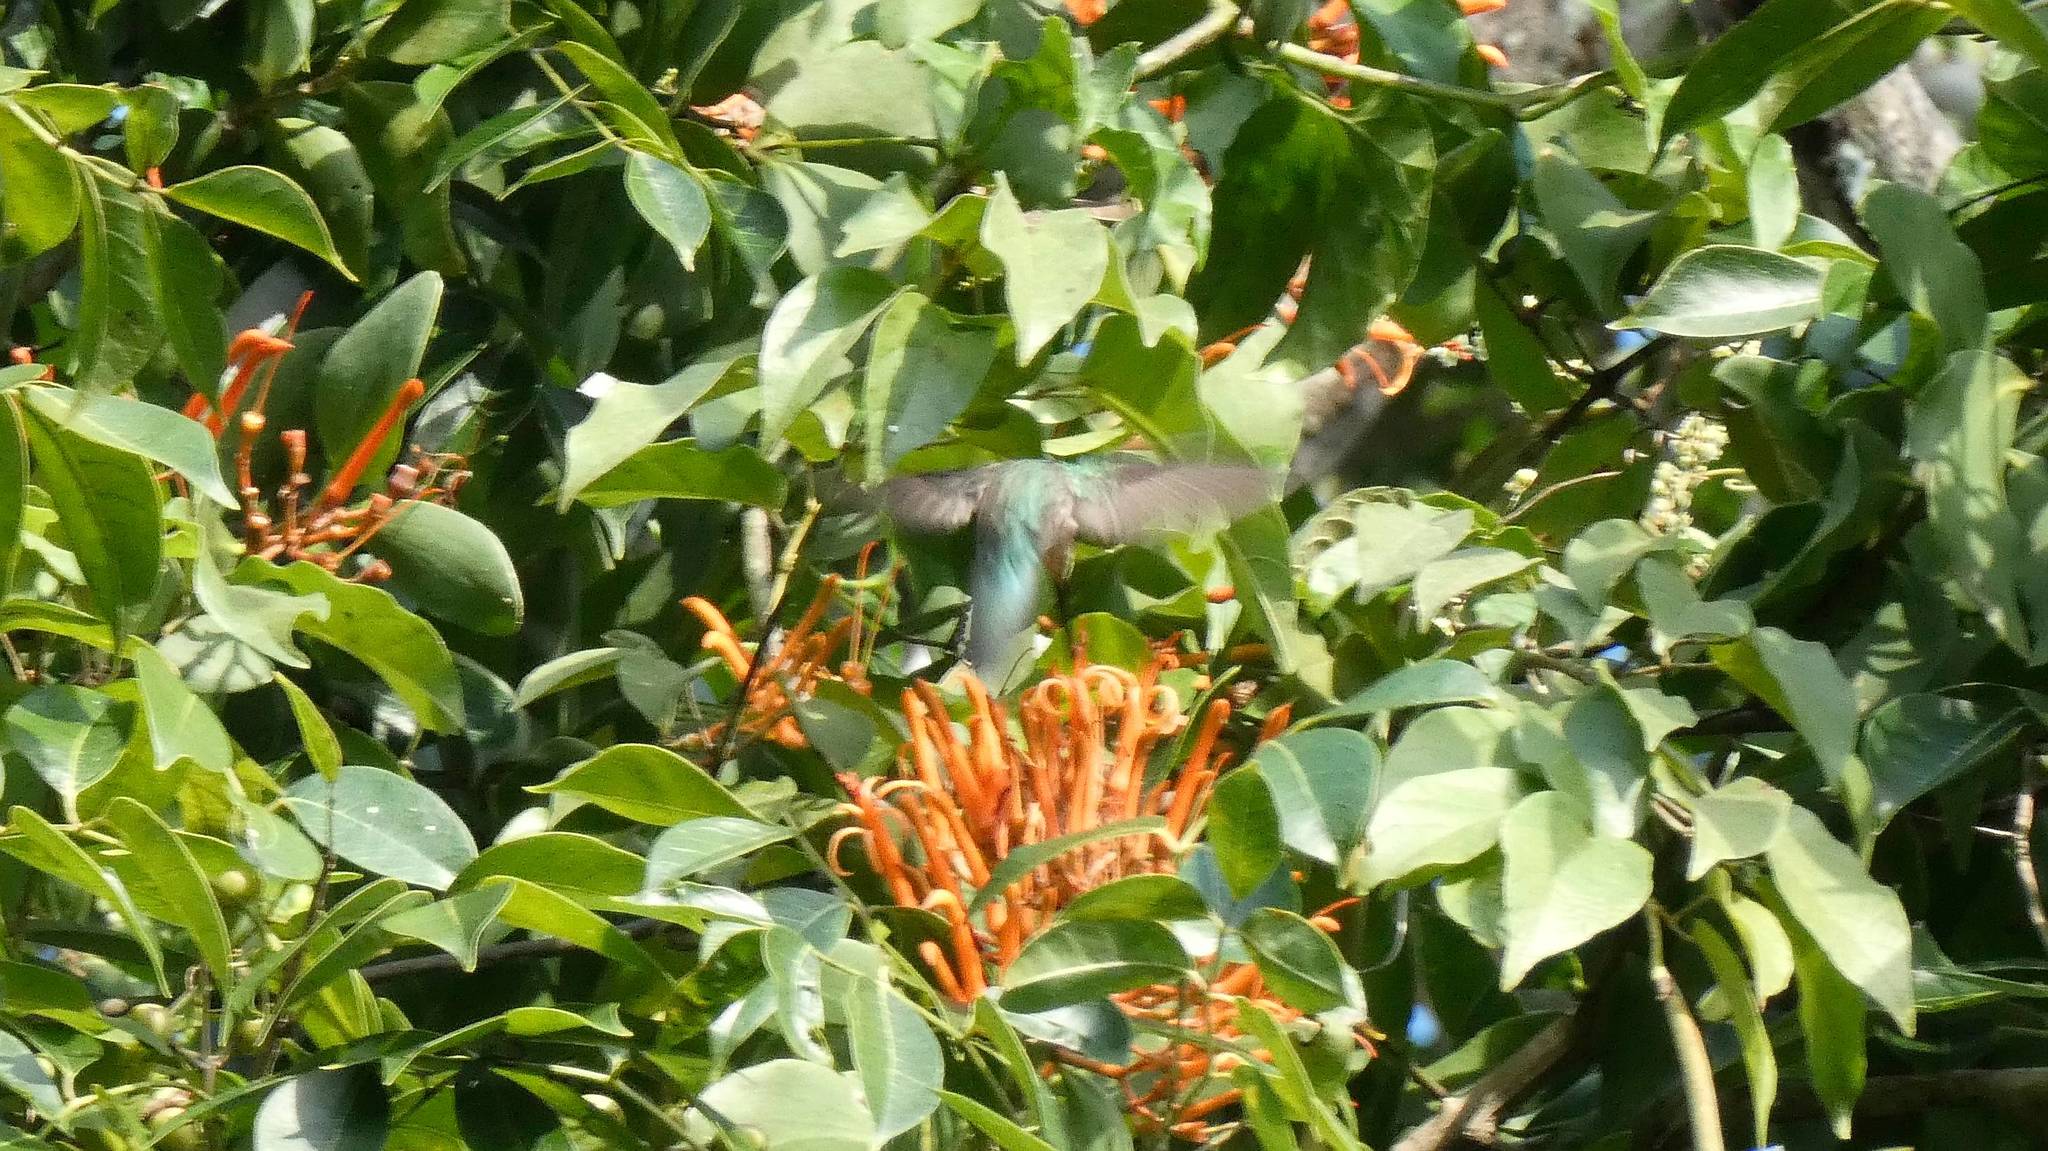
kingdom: Animalia
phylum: Chordata
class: Aves
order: Apodiformes
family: Trochilidae
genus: Pampa
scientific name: Pampa curvipennis
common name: Curve-winged sabrewing
